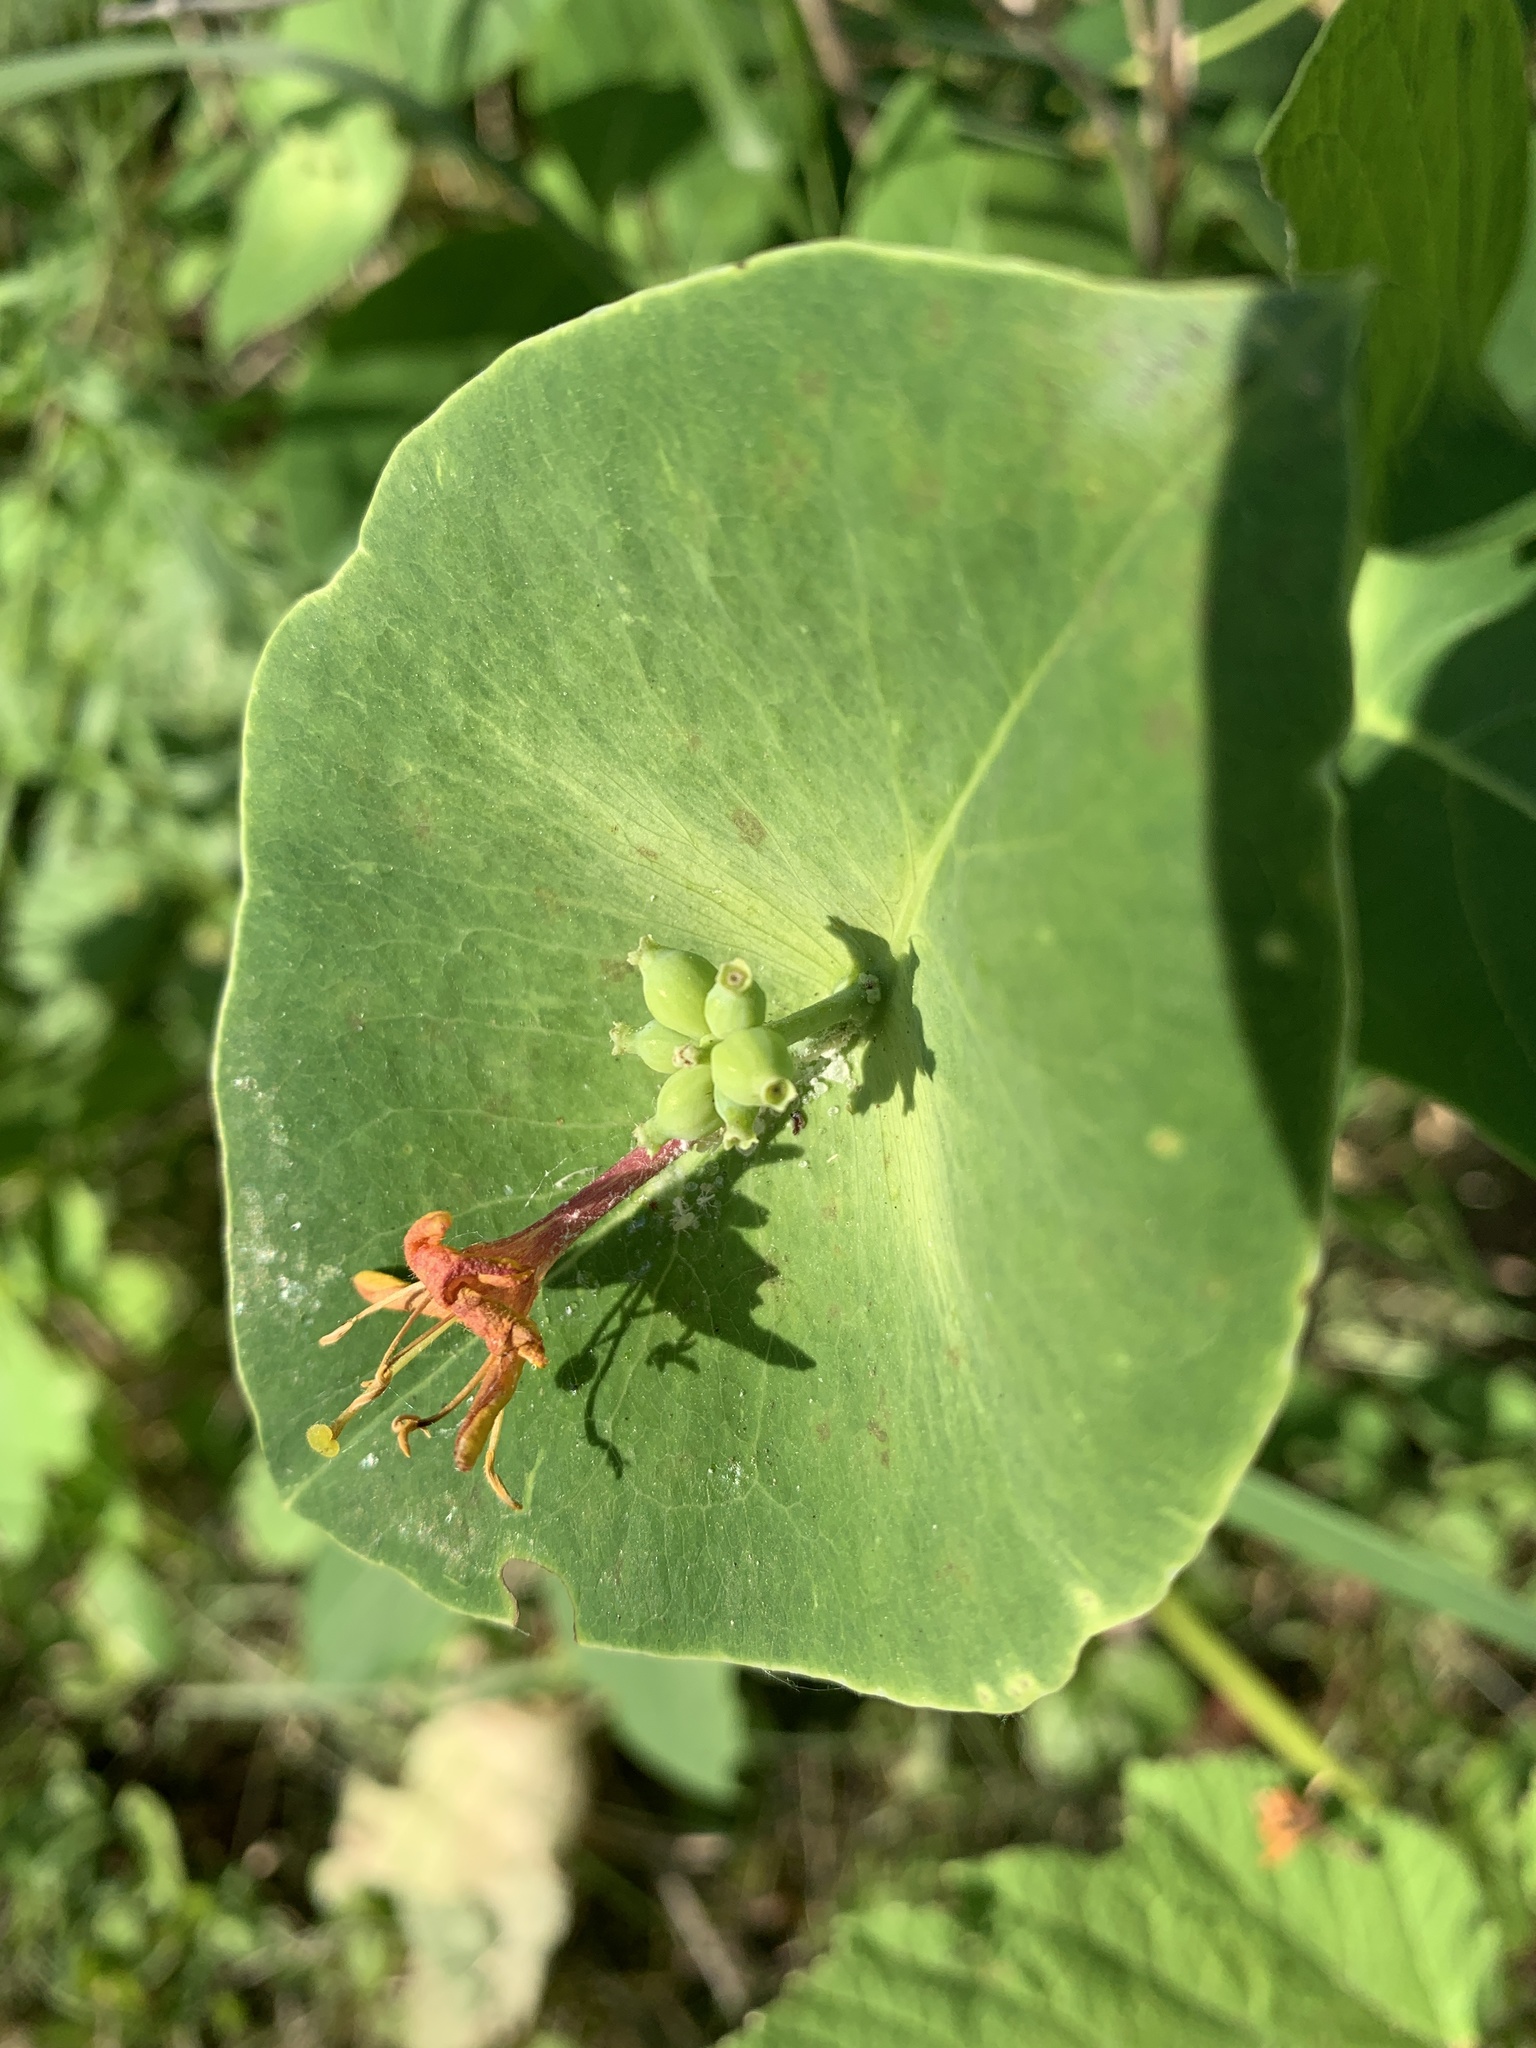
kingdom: Plantae
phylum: Tracheophyta
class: Magnoliopsida
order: Dipsacales
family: Caprifoliaceae
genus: Lonicera
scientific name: Lonicera dioica
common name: Limber honeysuckle
